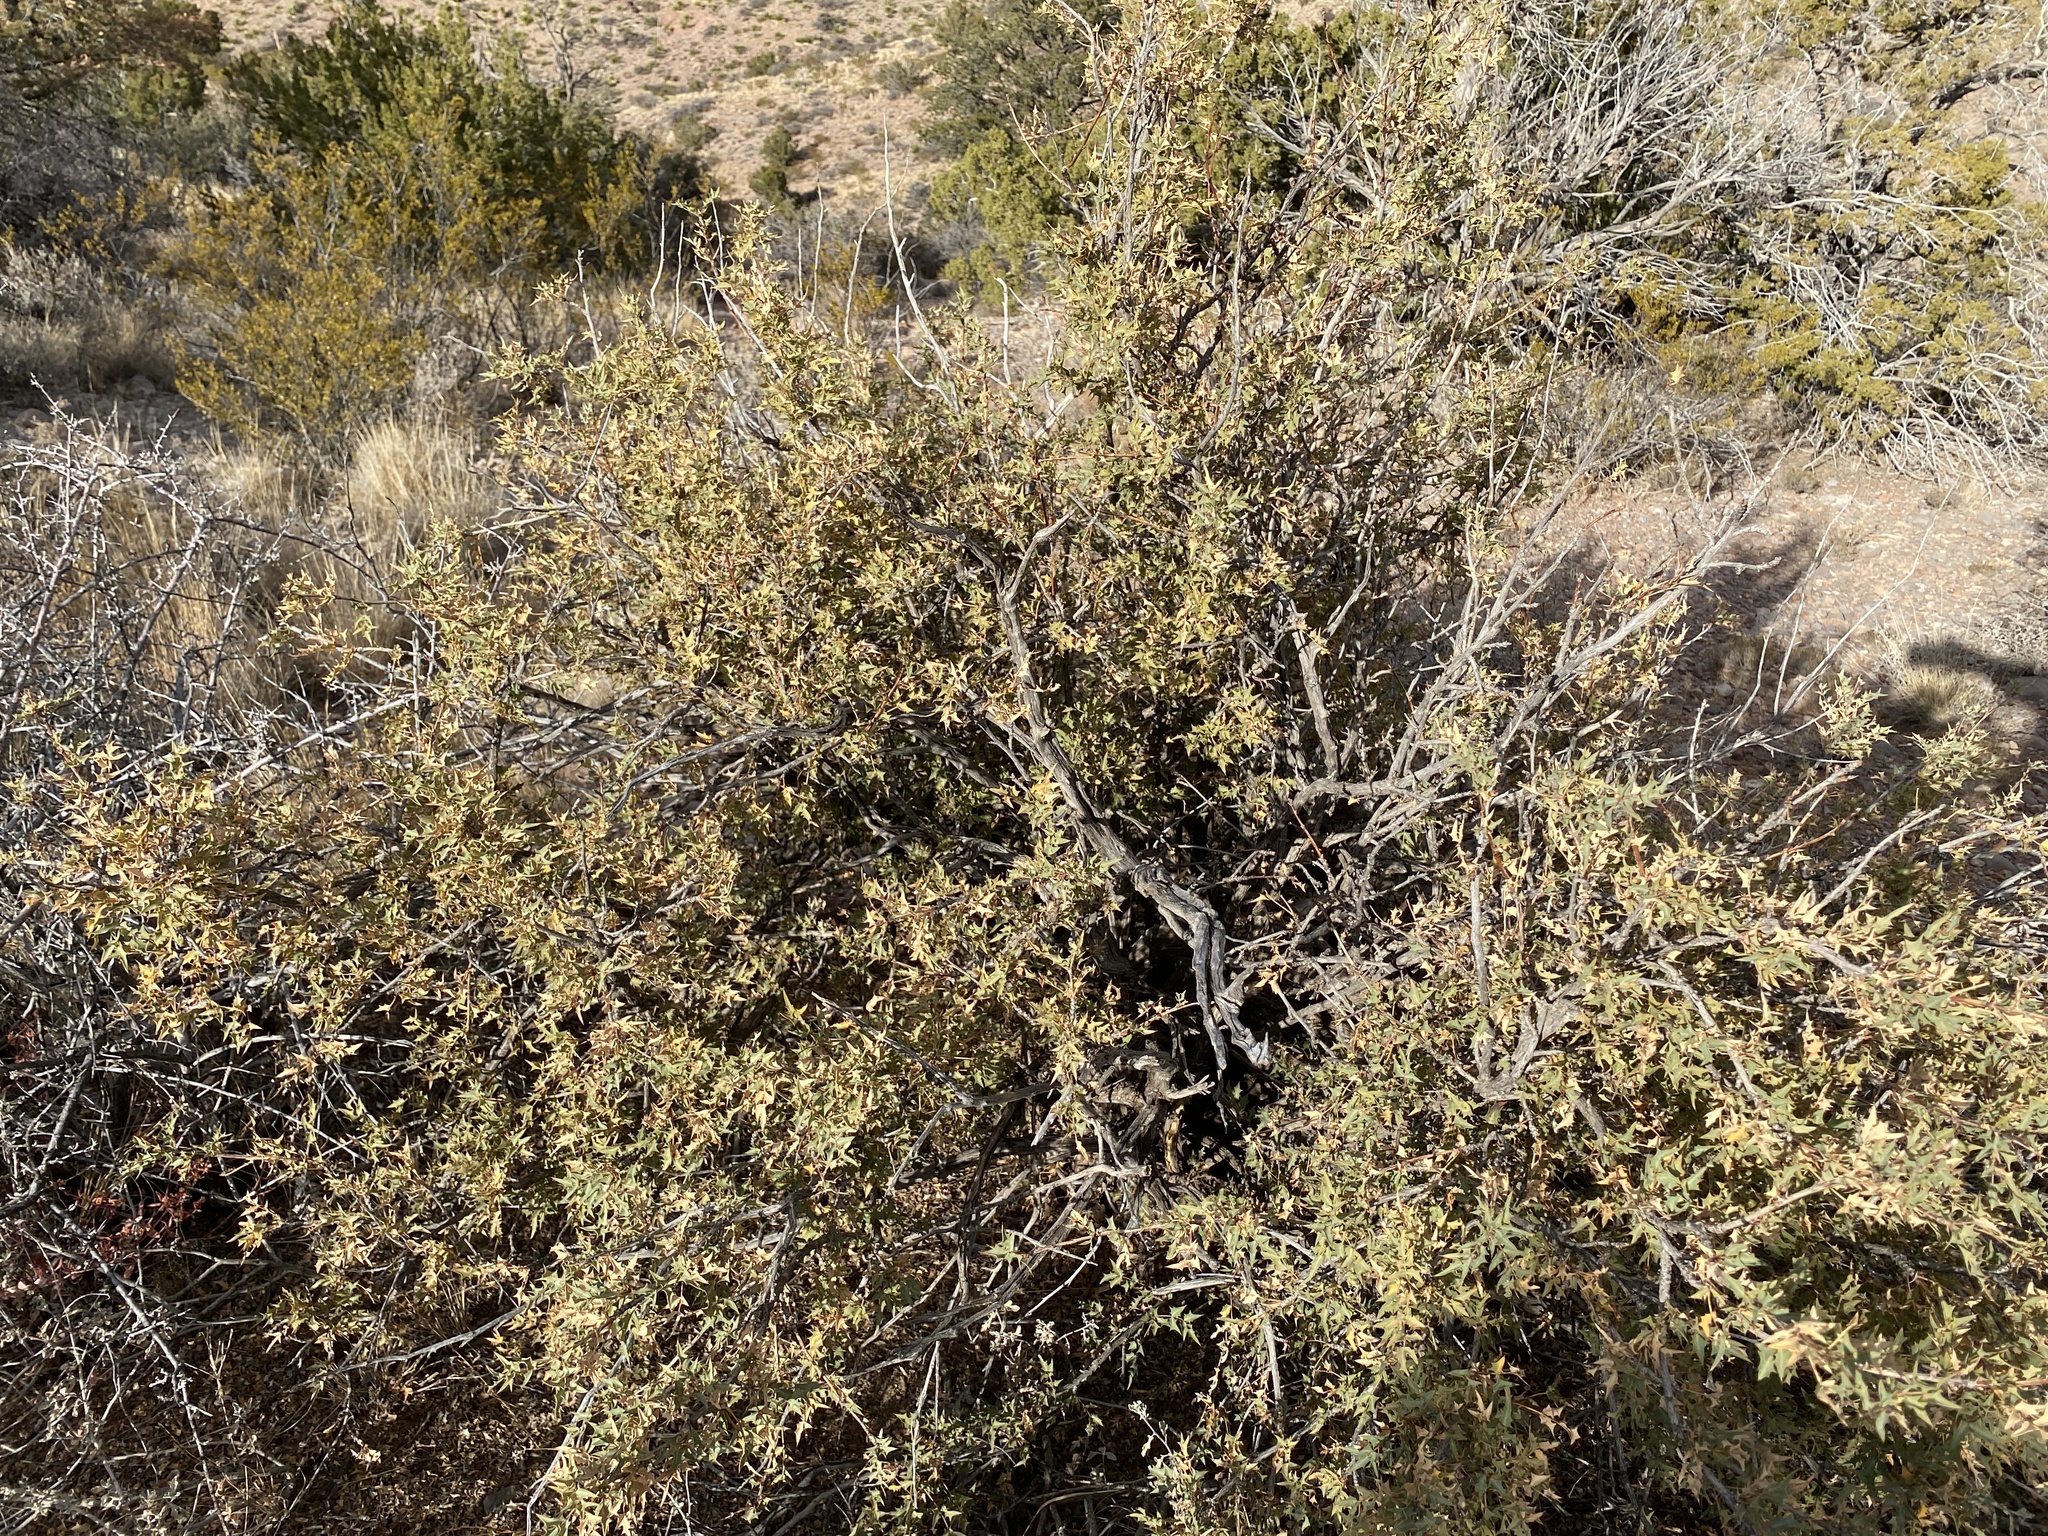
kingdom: Plantae
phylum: Tracheophyta
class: Magnoliopsida
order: Ranunculales
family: Berberidaceae
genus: Alloberberis
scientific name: Alloberberis haematocarpa
